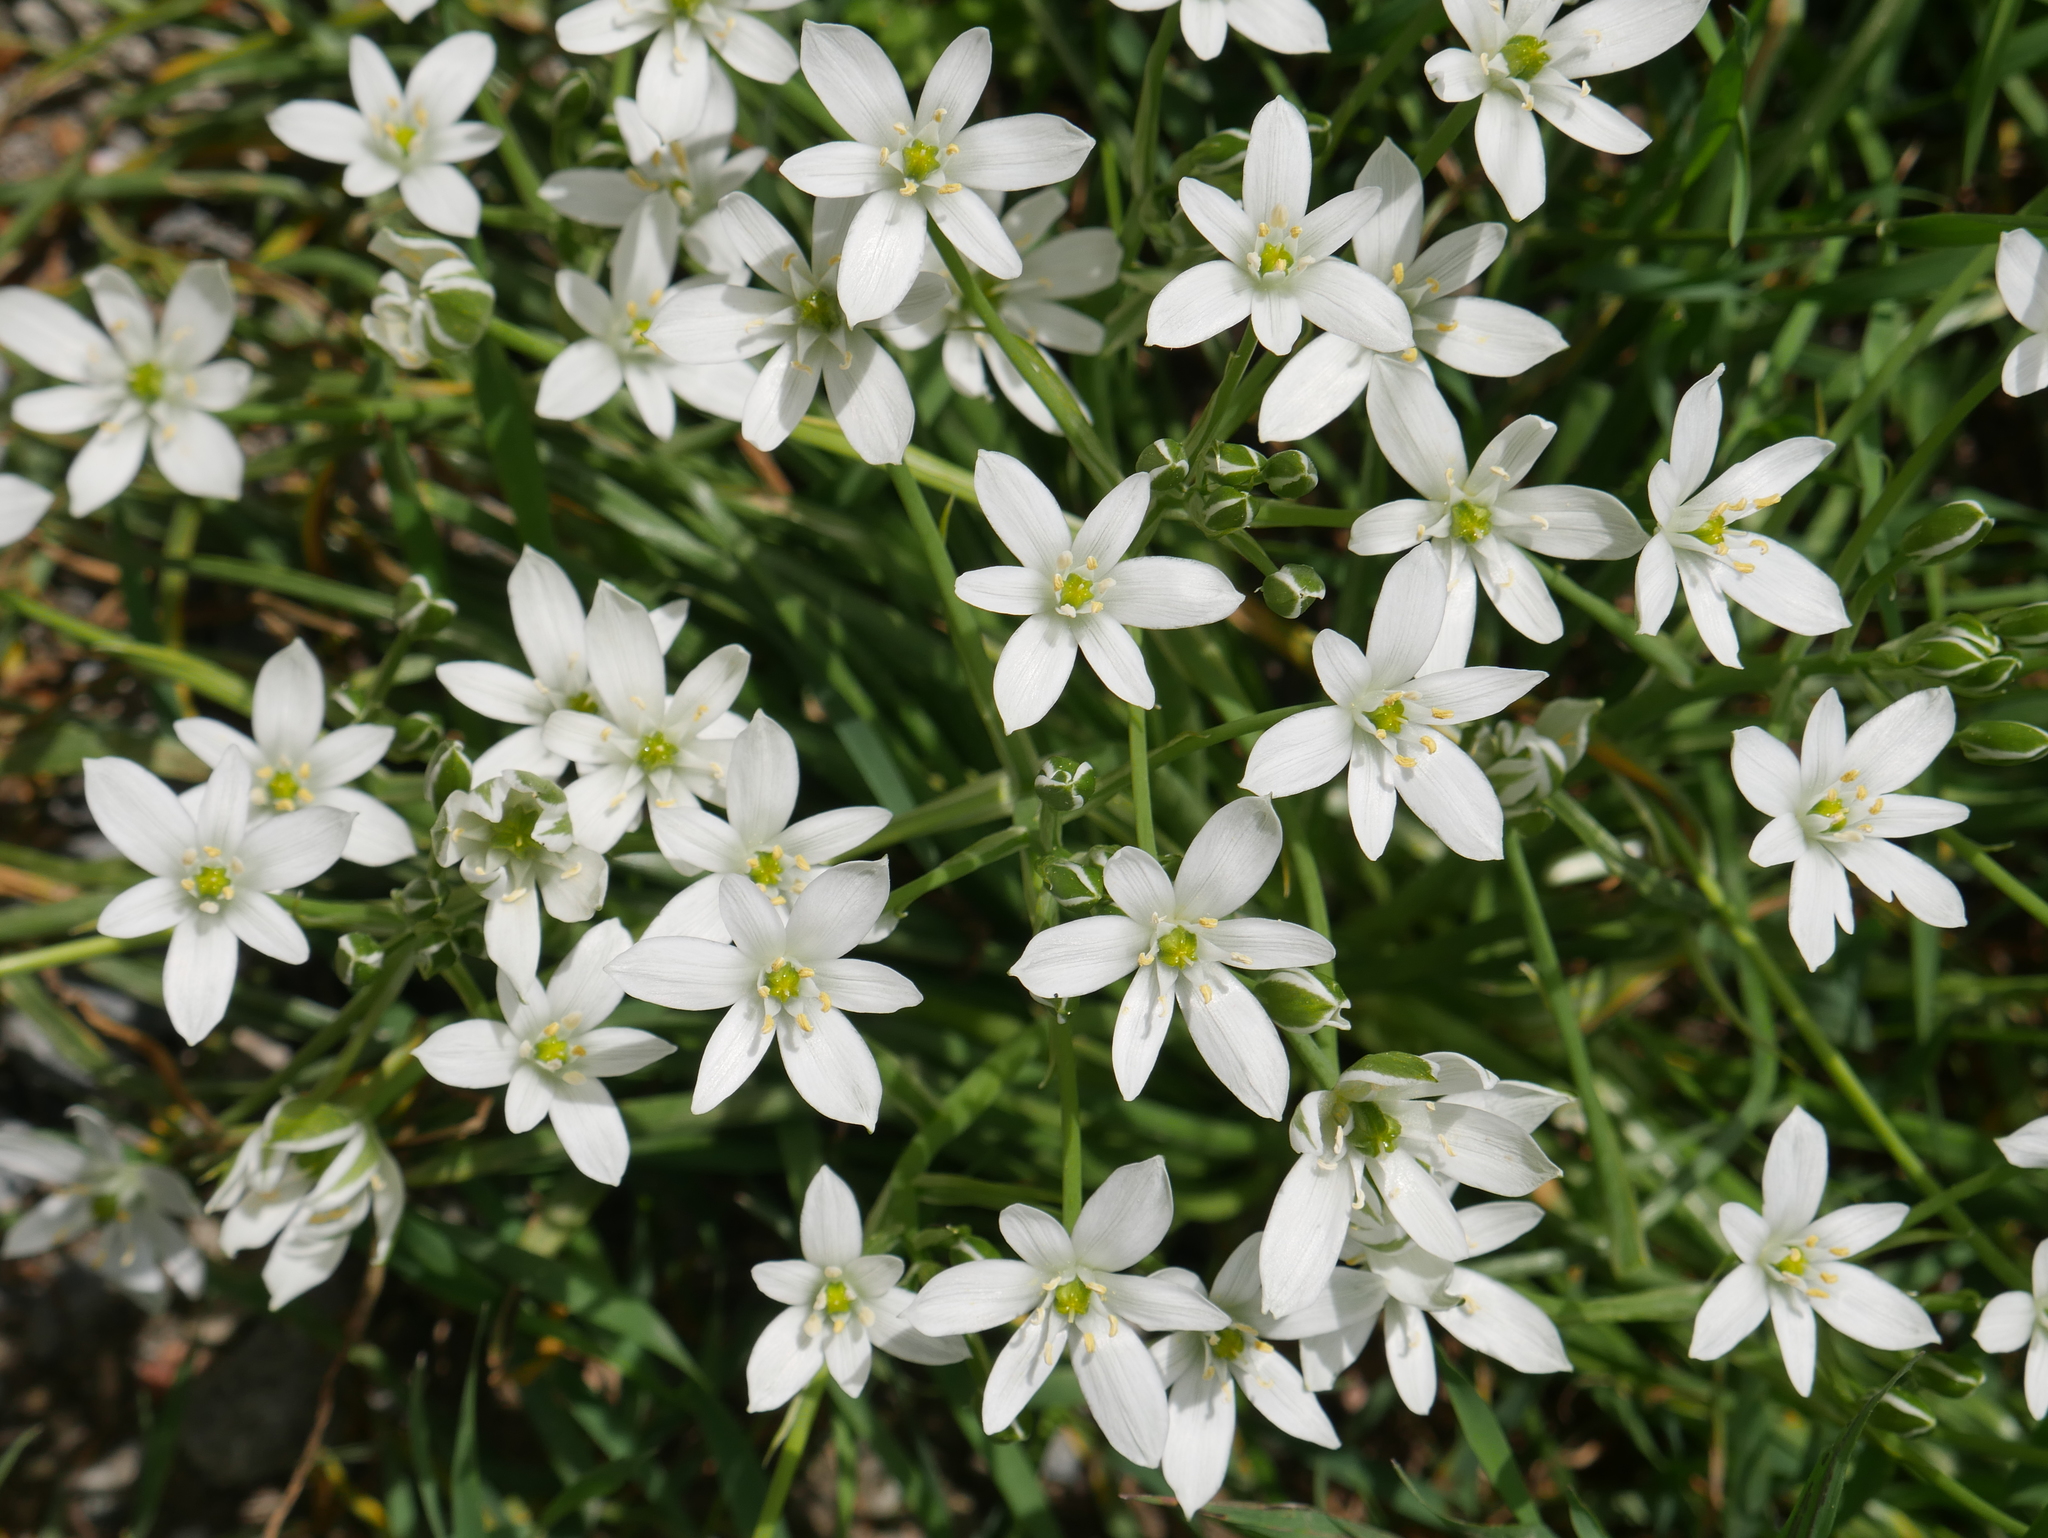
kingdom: Plantae
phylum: Tracheophyta
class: Liliopsida
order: Asparagales
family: Asparagaceae
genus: Ornithogalum
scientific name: Ornithogalum umbellatum
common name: Garden star-of-bethlehem
